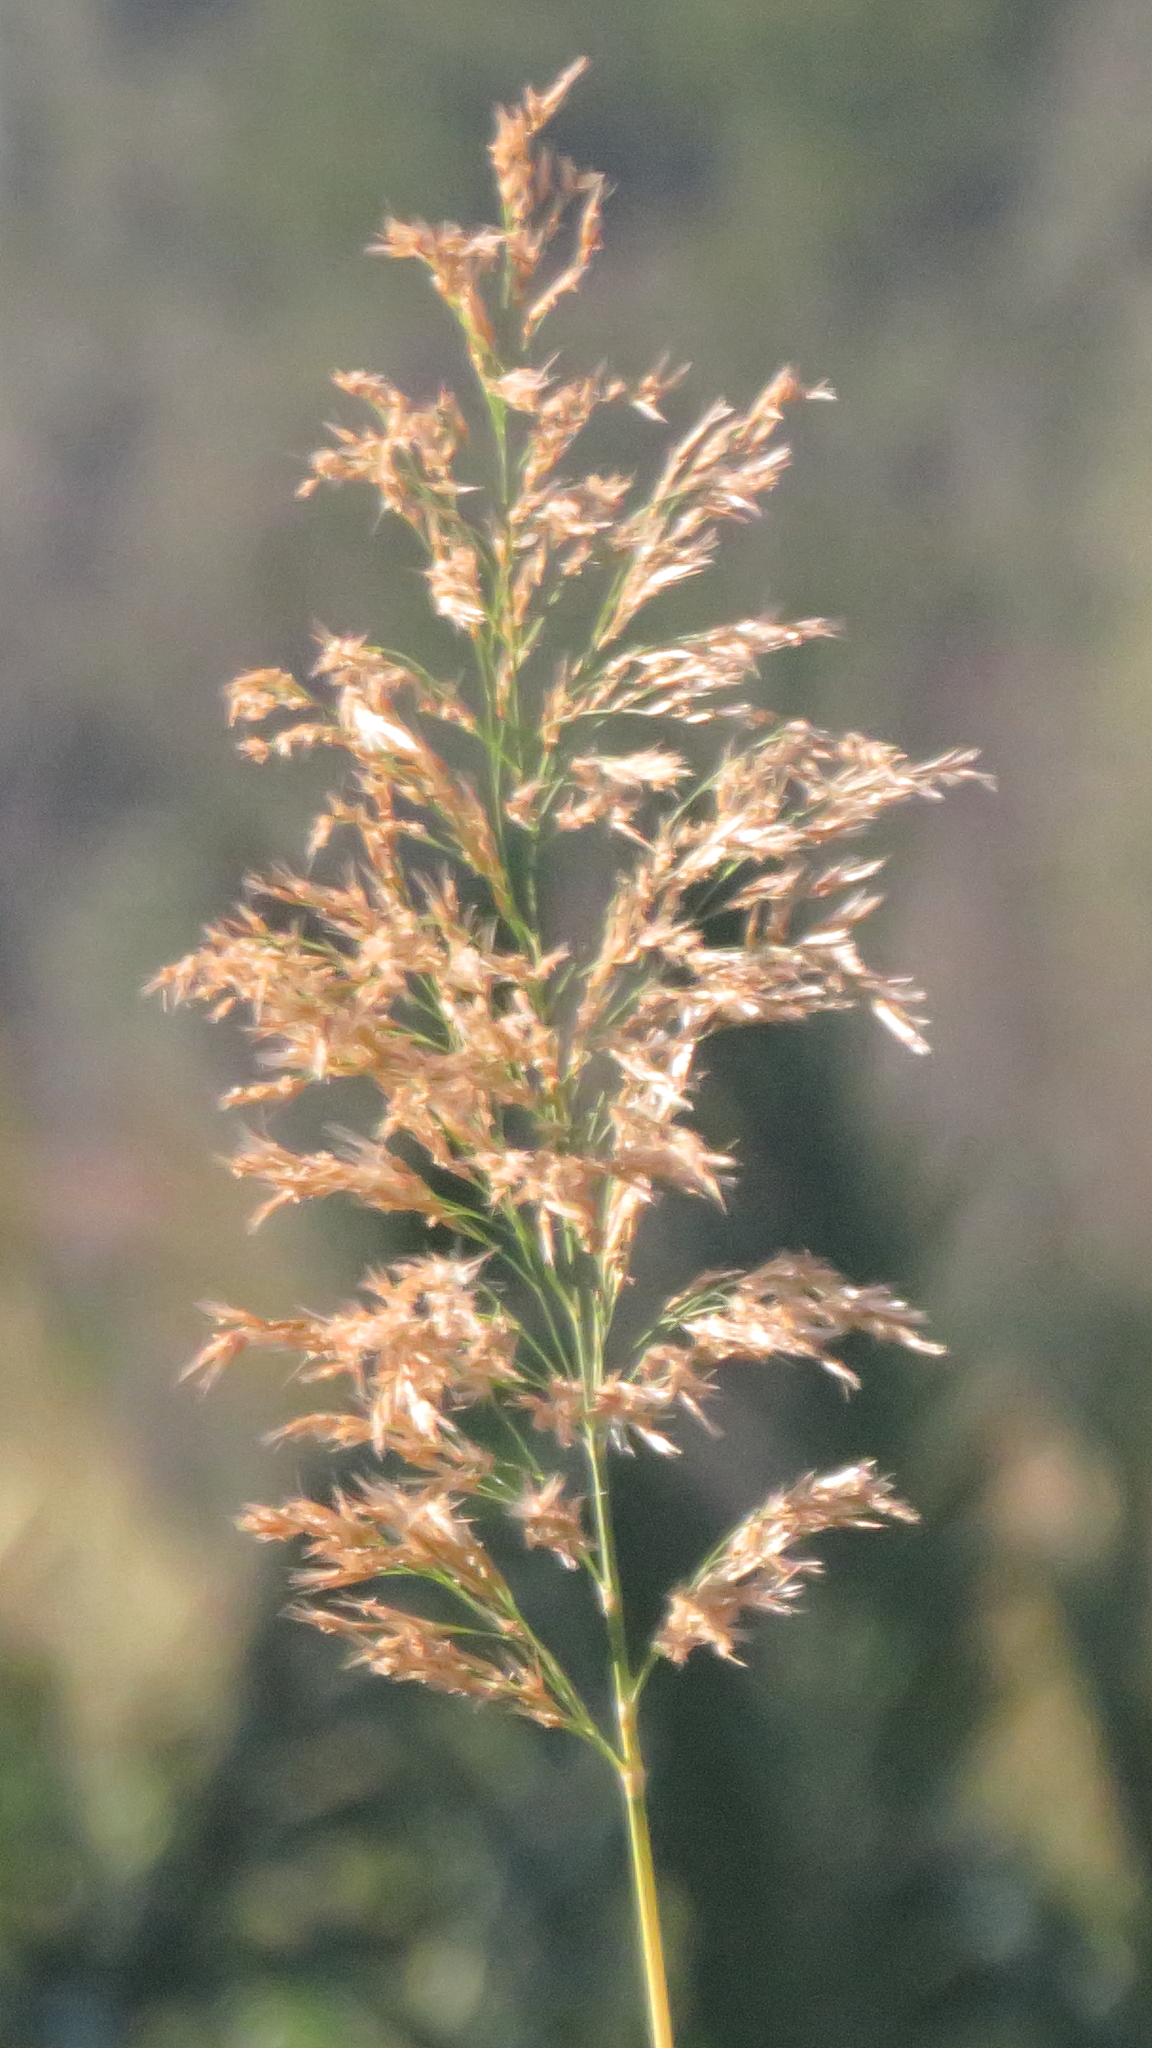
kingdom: Plantae
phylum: Tracheophyta
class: Liliopsida
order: Poales
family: Poaceae
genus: Phragmites
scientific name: Phragmites australis
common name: Common reed
